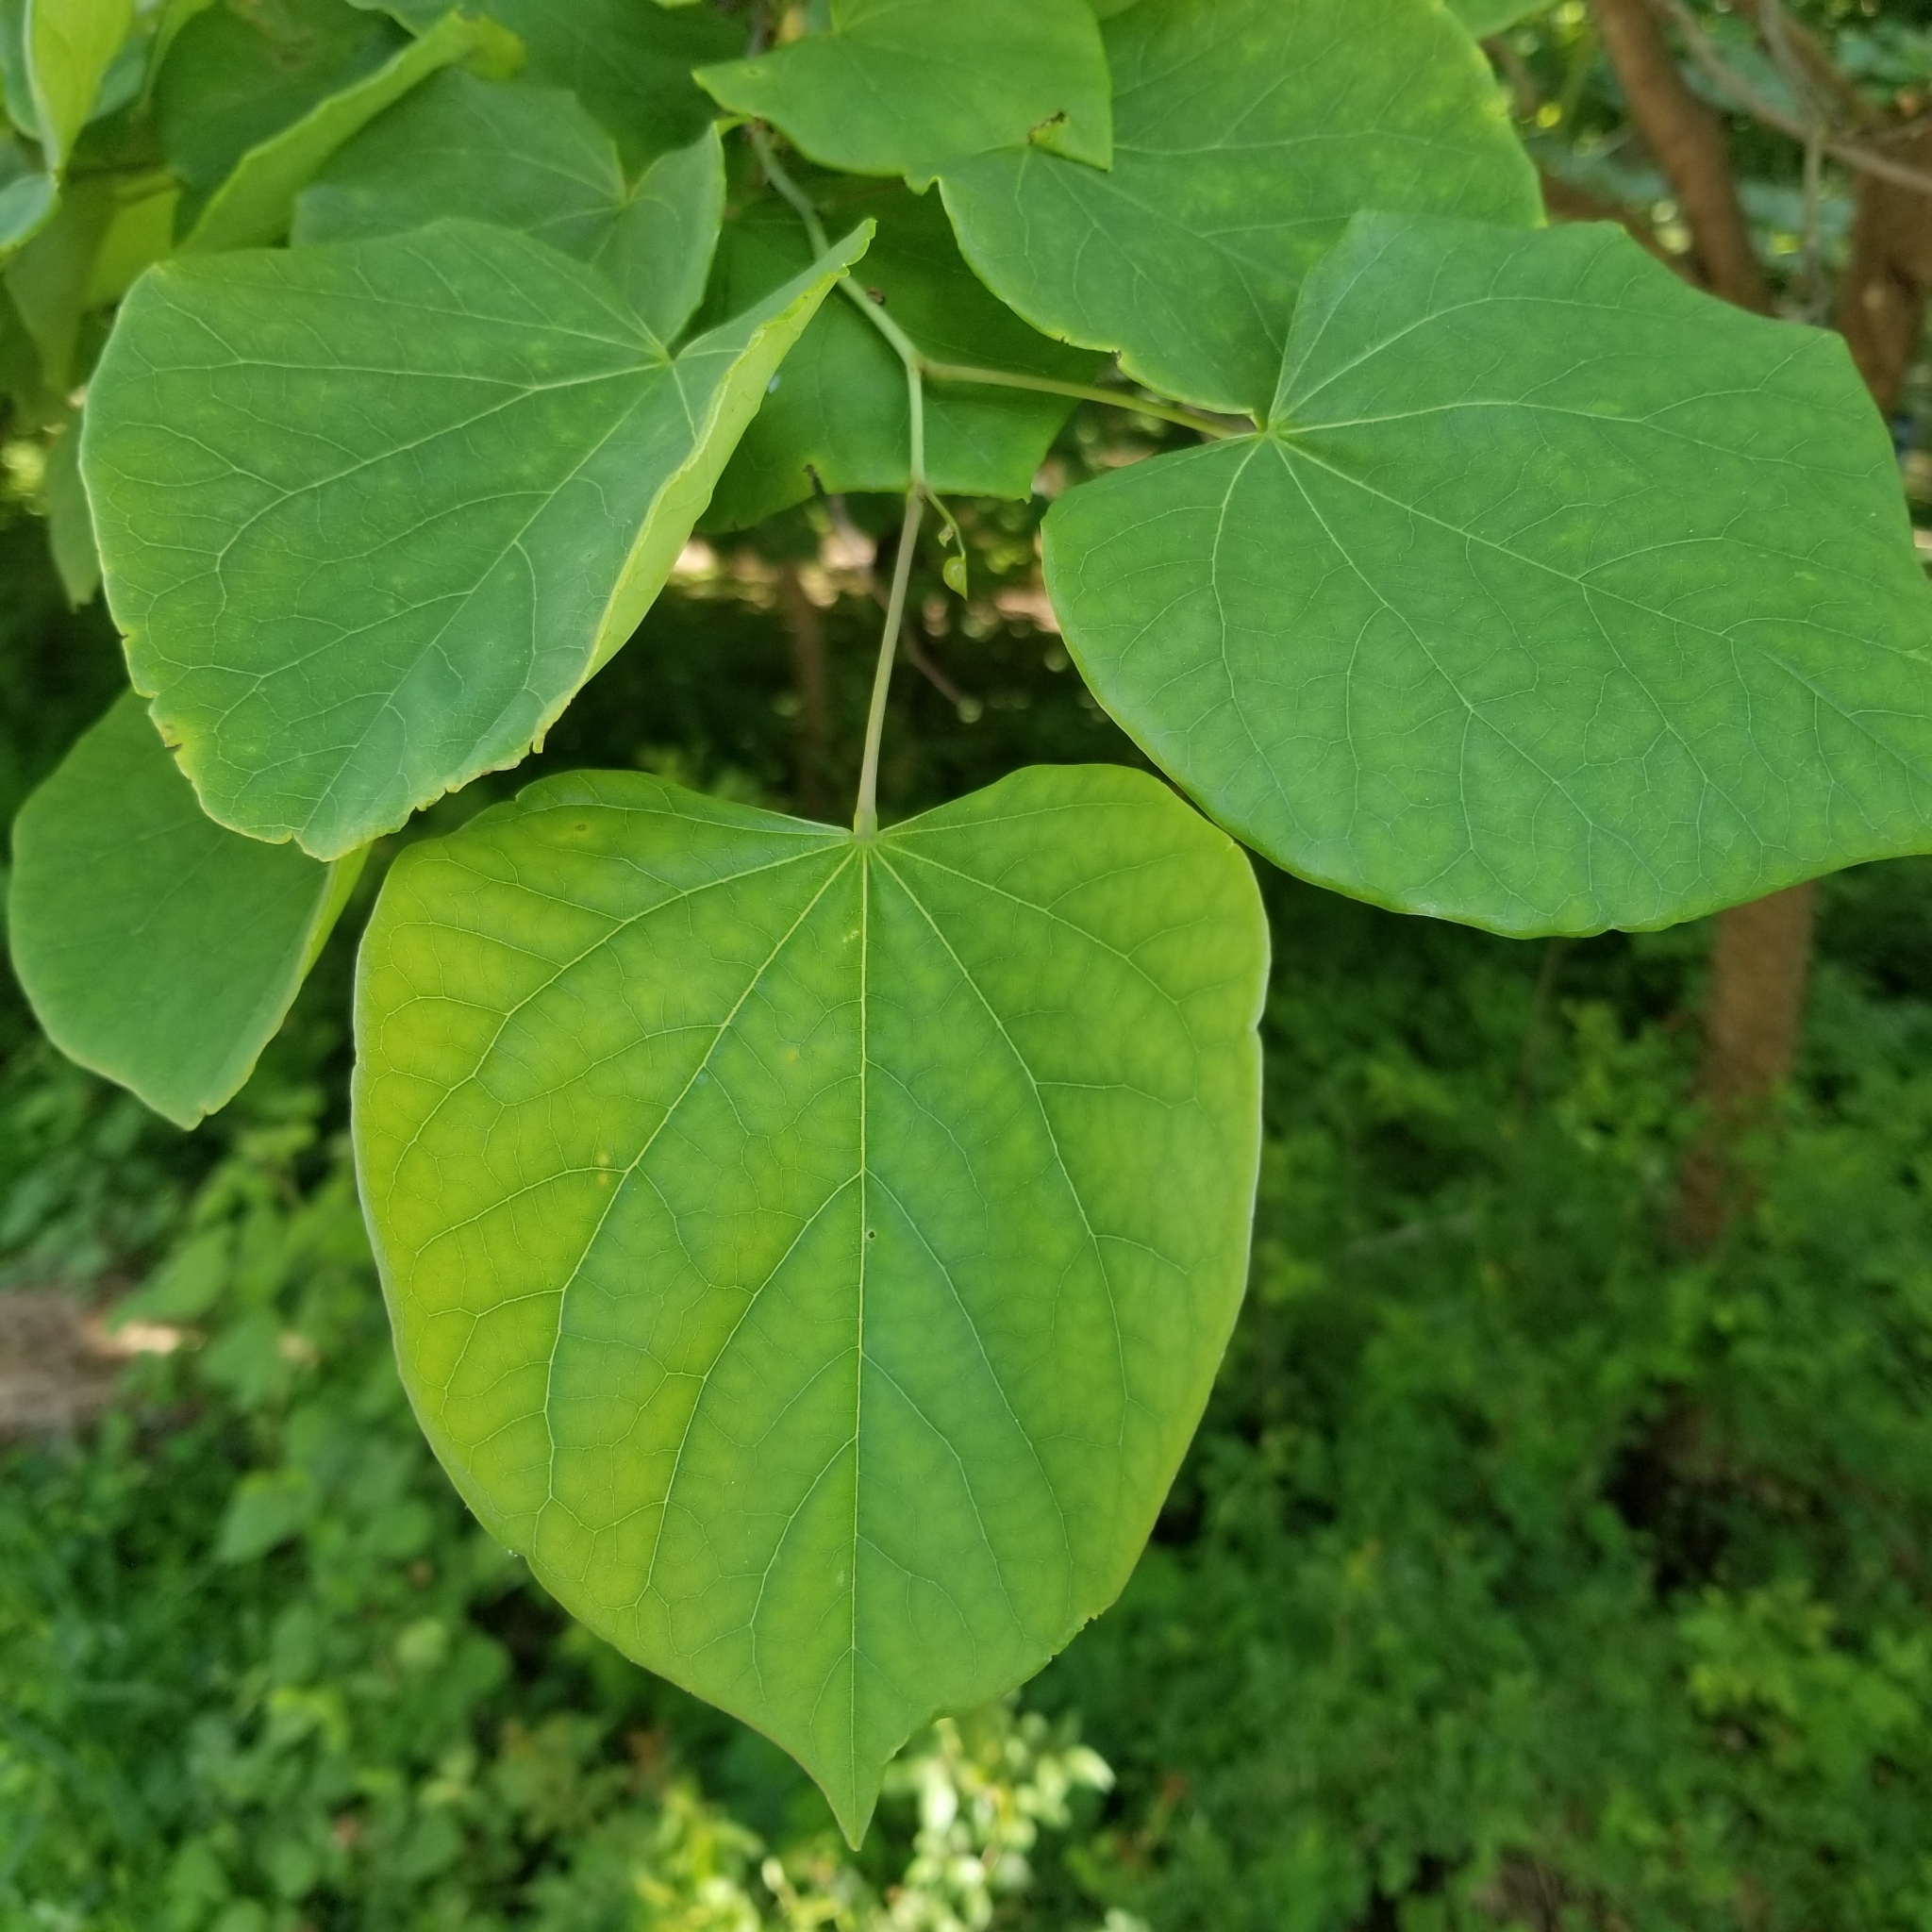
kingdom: Plantae
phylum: Tracheophyta
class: Magnoliopsida
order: Fabales
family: Fabaceae
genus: Cercis
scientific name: Cercis canadensis
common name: Eastern redbud
